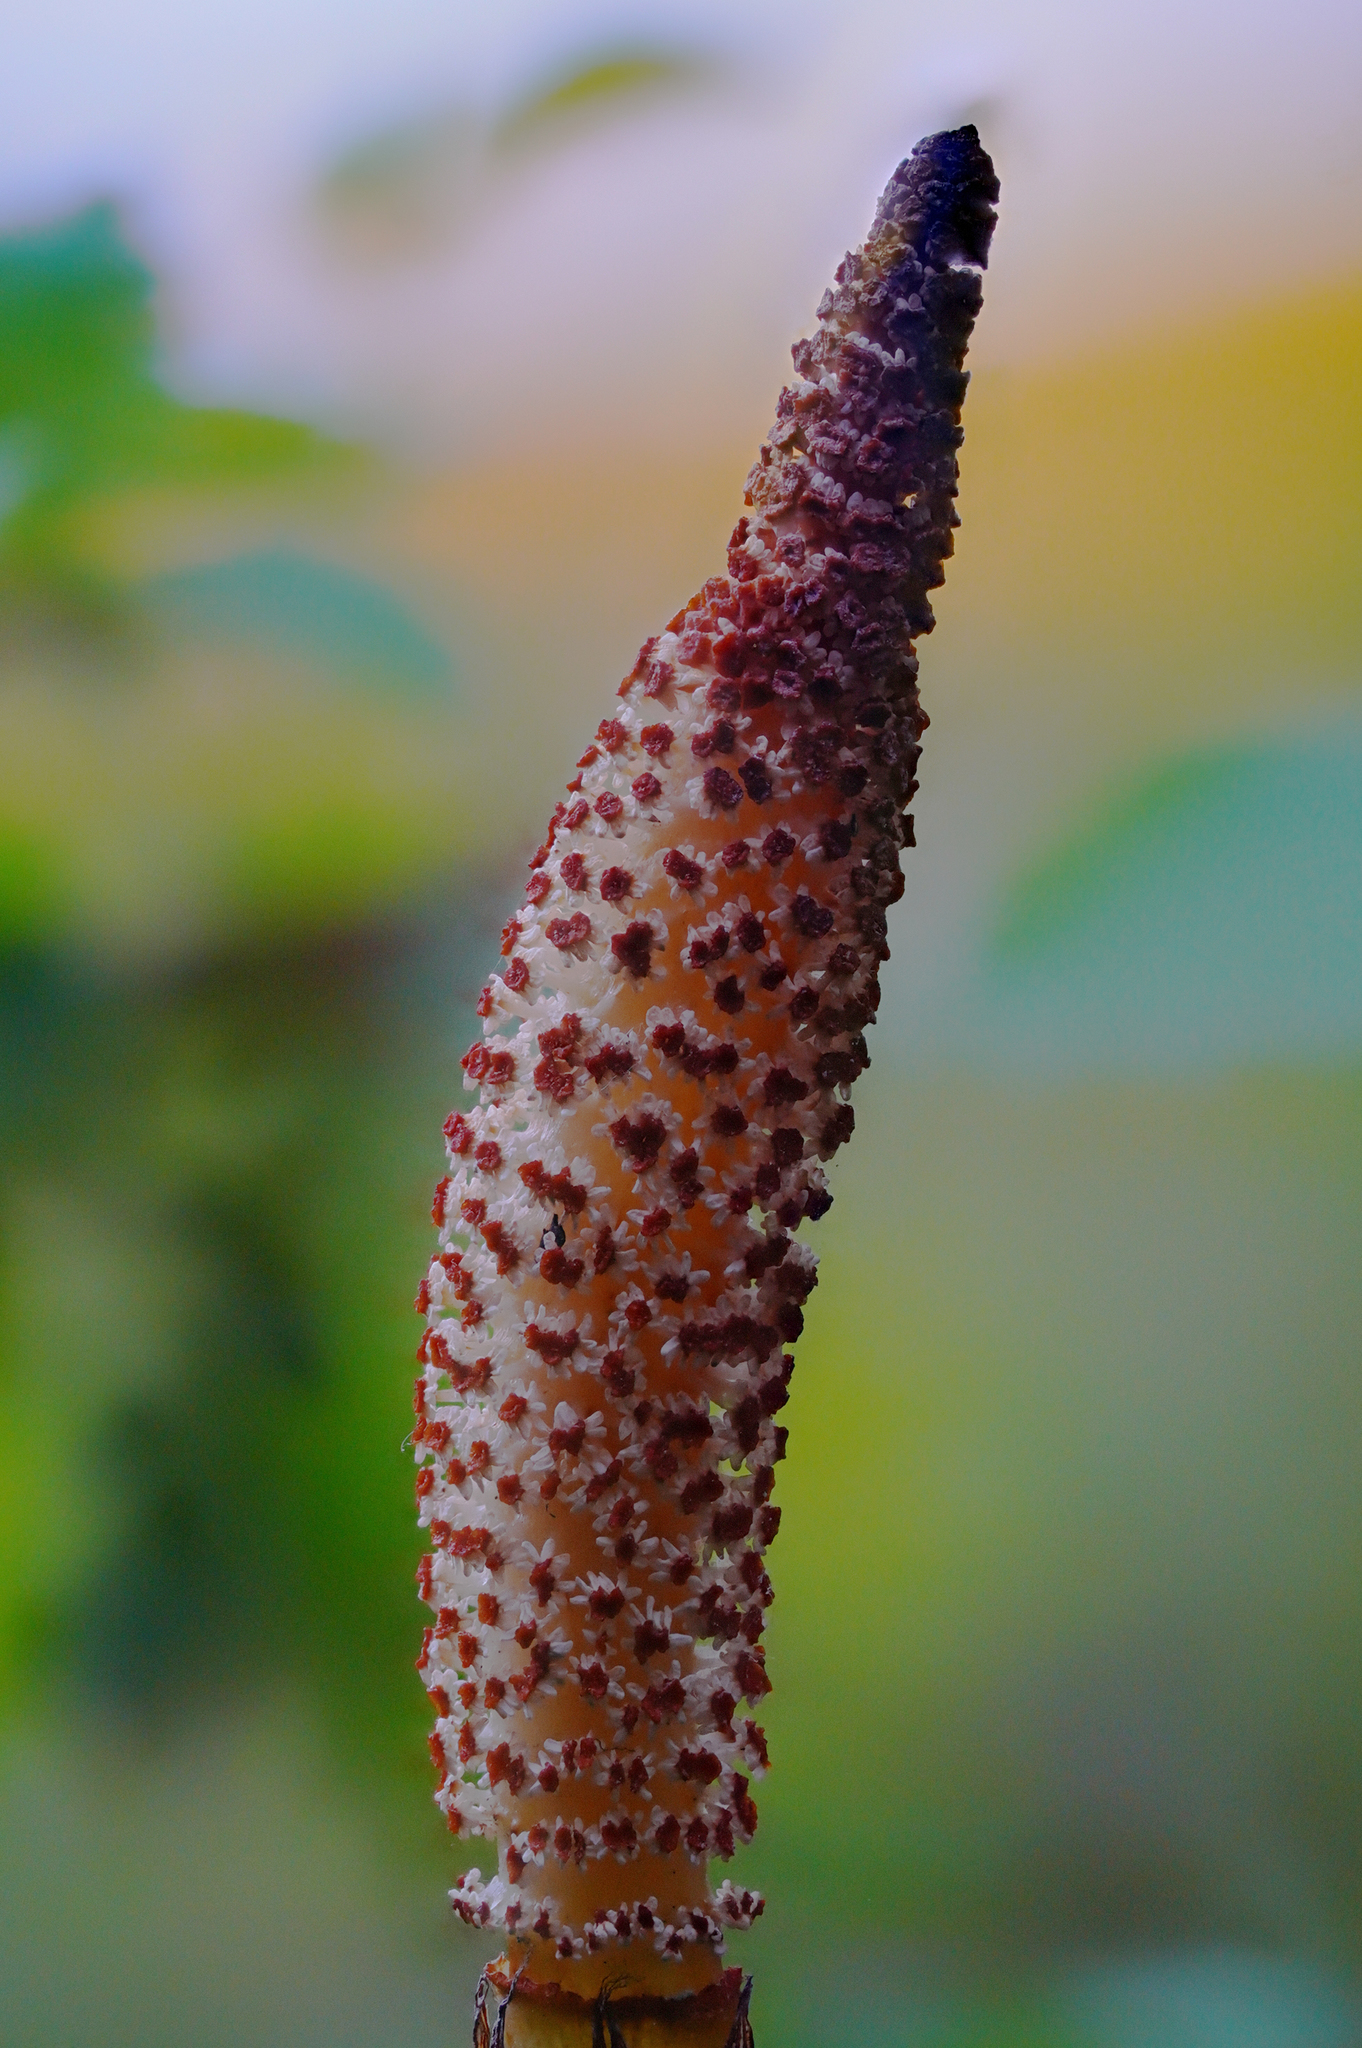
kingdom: Plantae
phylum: Tracheophyta
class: Polypodiopsida
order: Equisetales
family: Equisetaceae
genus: Equisetum
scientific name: Equisetum braunii
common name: Braun's horsetail
